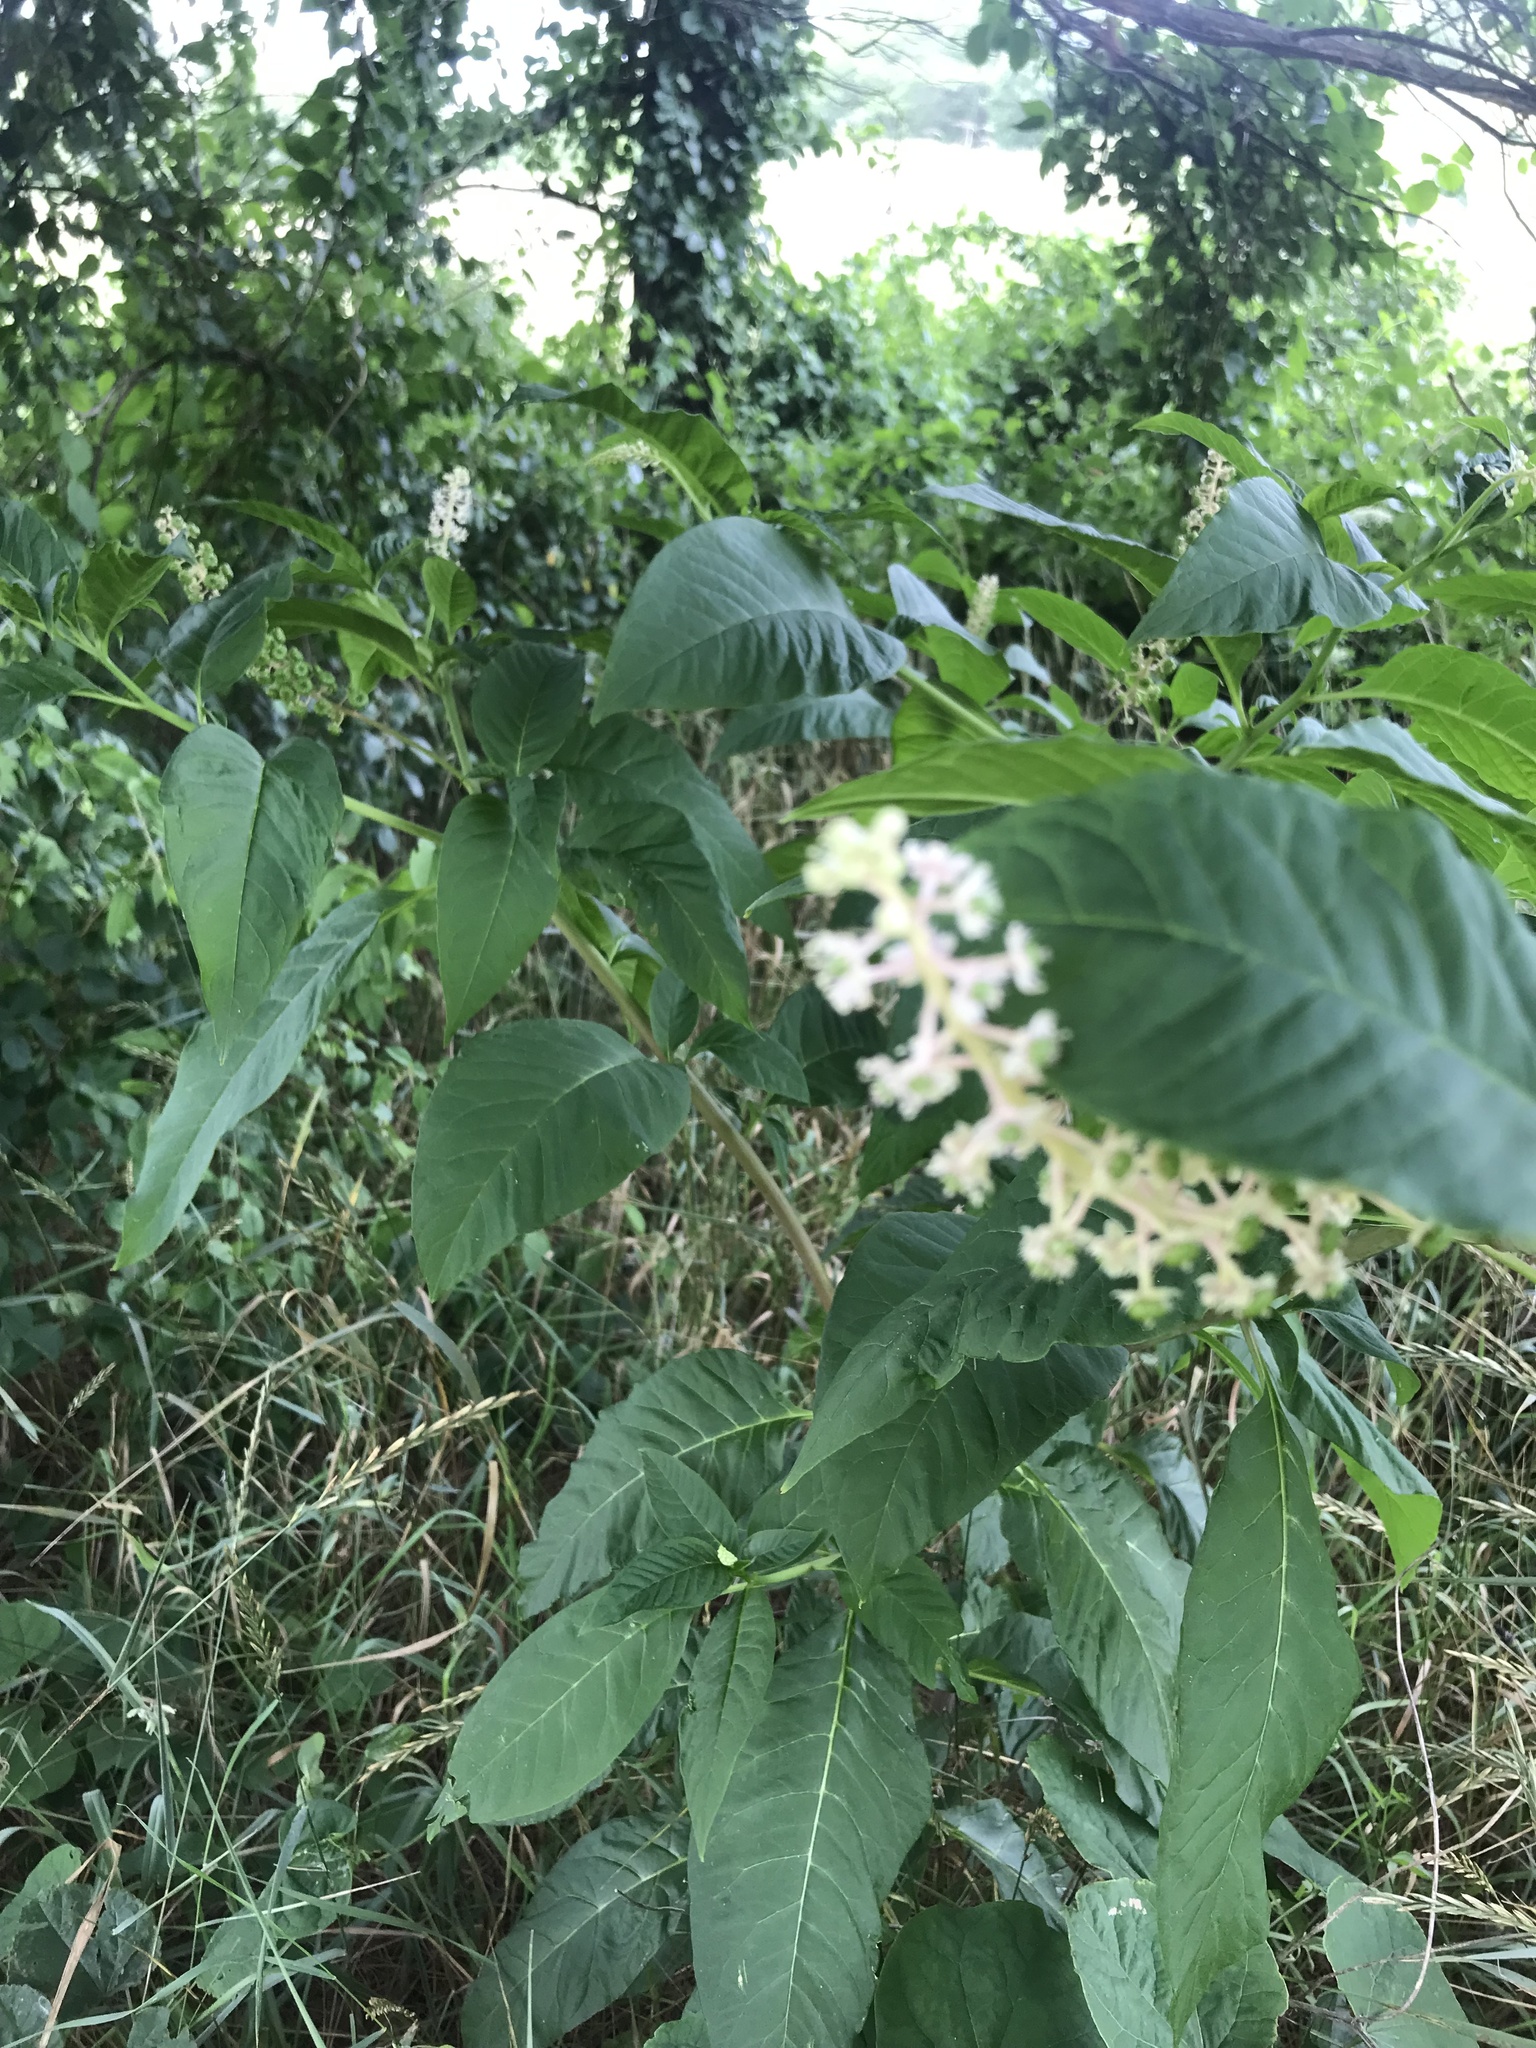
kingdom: Plantae
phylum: Tracheophyta
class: Magnoliopsida
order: Caryophyllales
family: Phytolaccaceae
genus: Phytolacca
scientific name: Phytolacca americana
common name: American pokeweed
